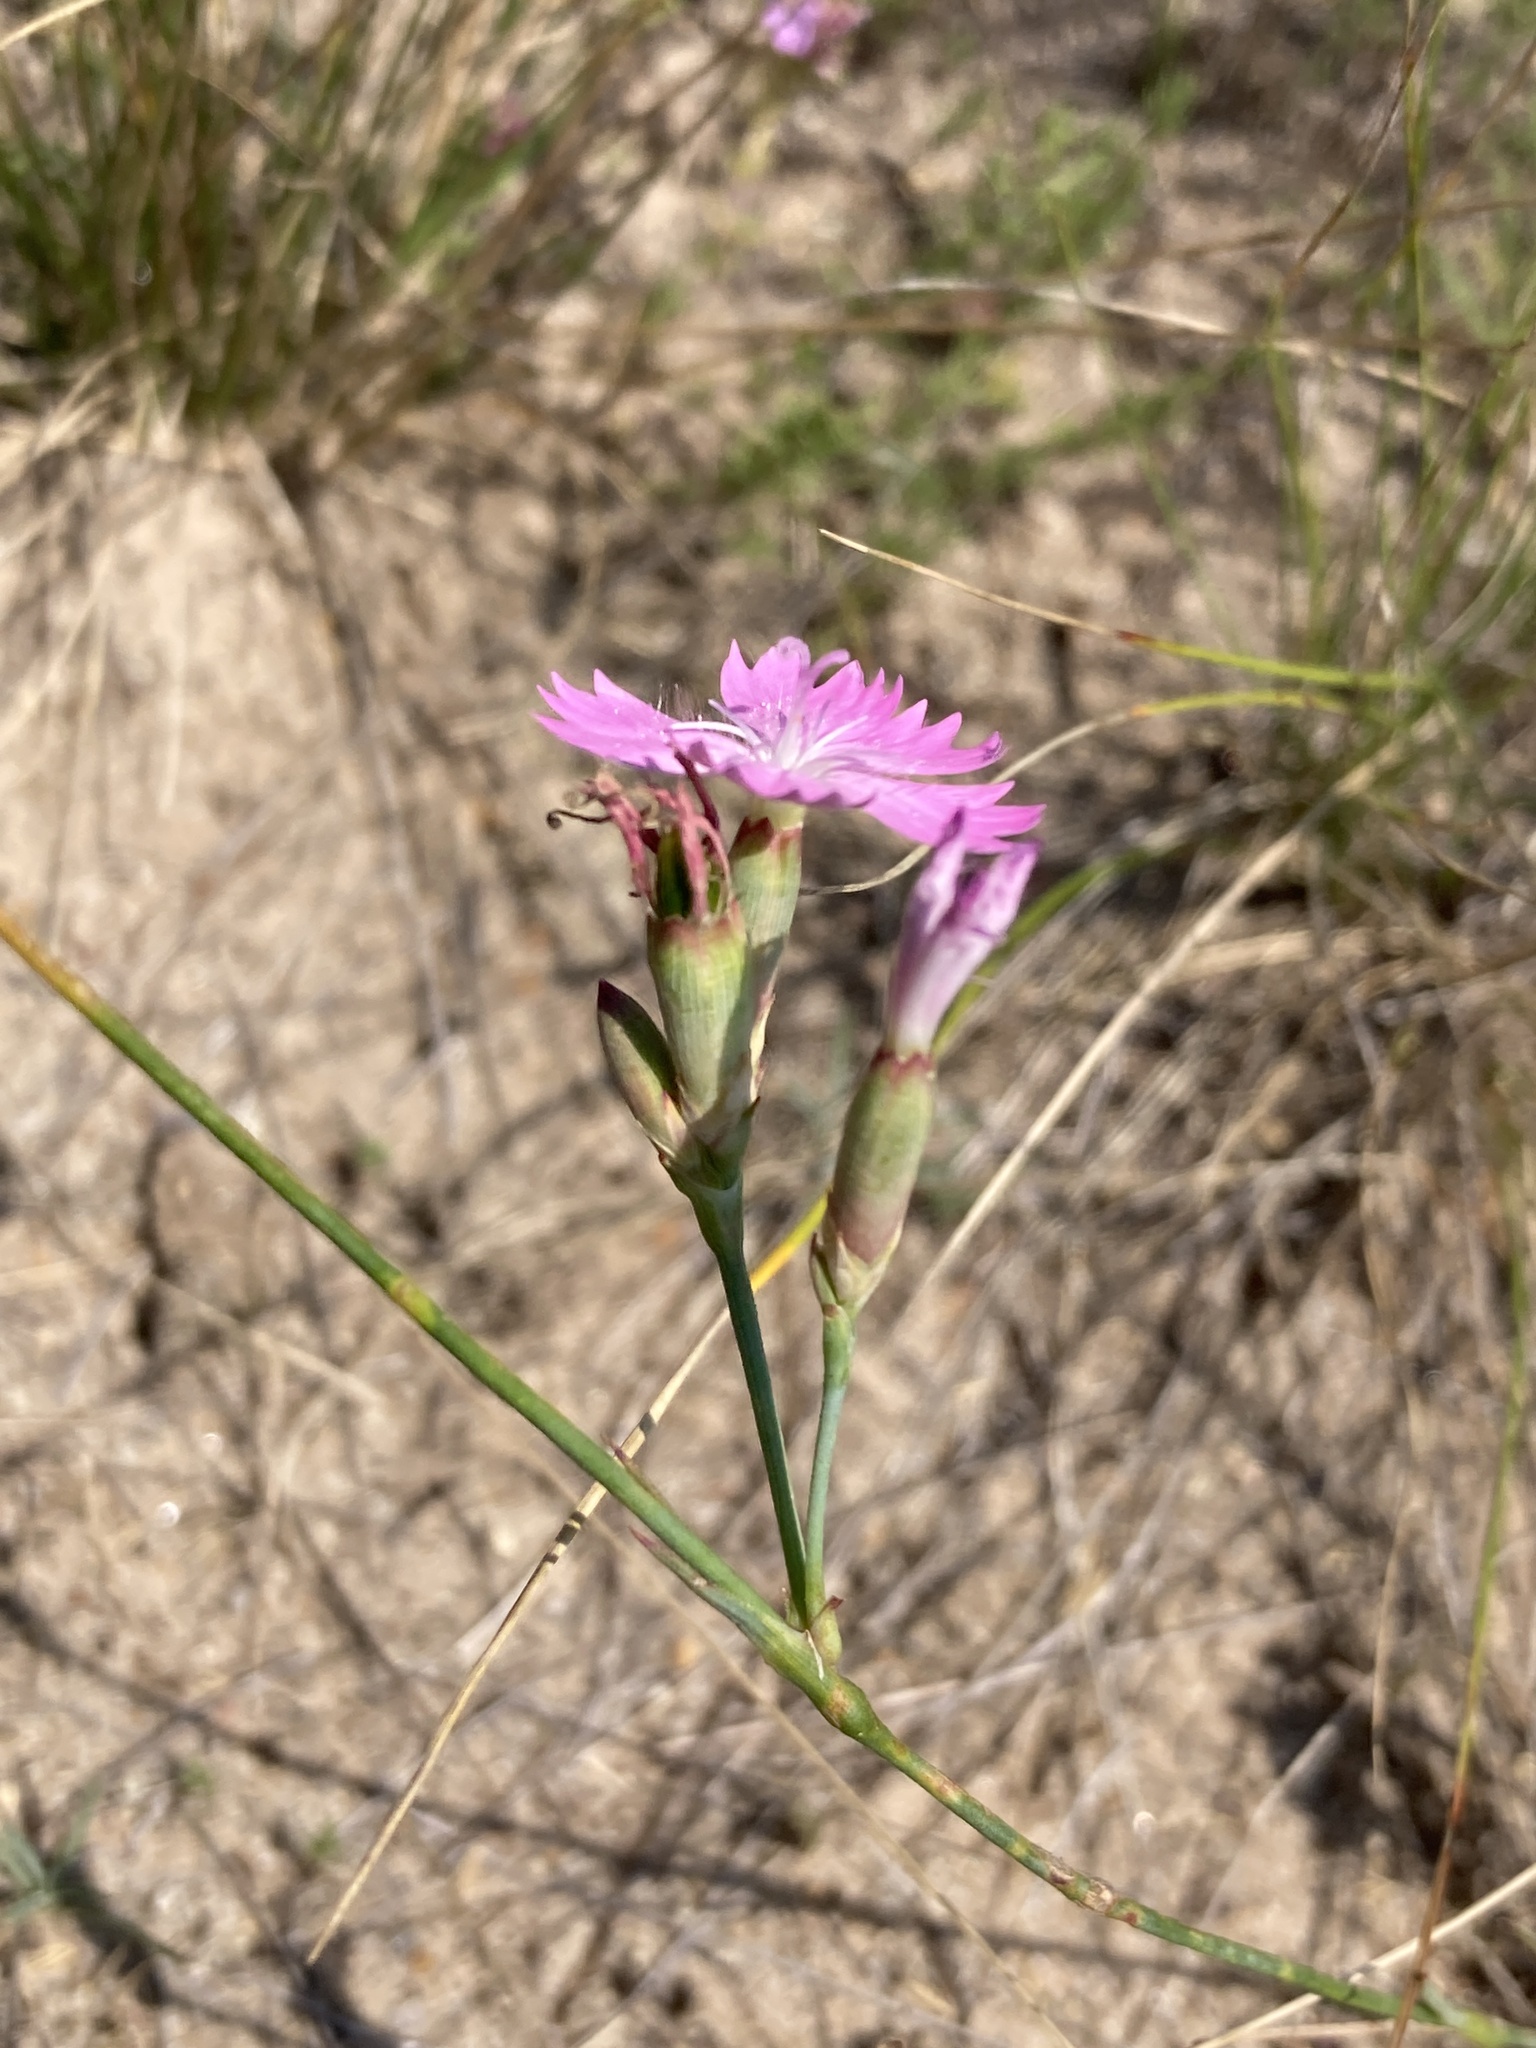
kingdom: Plantae
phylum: Tracheophyta
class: Magnoliopsida
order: Caryophyllales
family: Caryophyllaceae
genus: Dianthus
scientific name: Dianthus polymorphus
